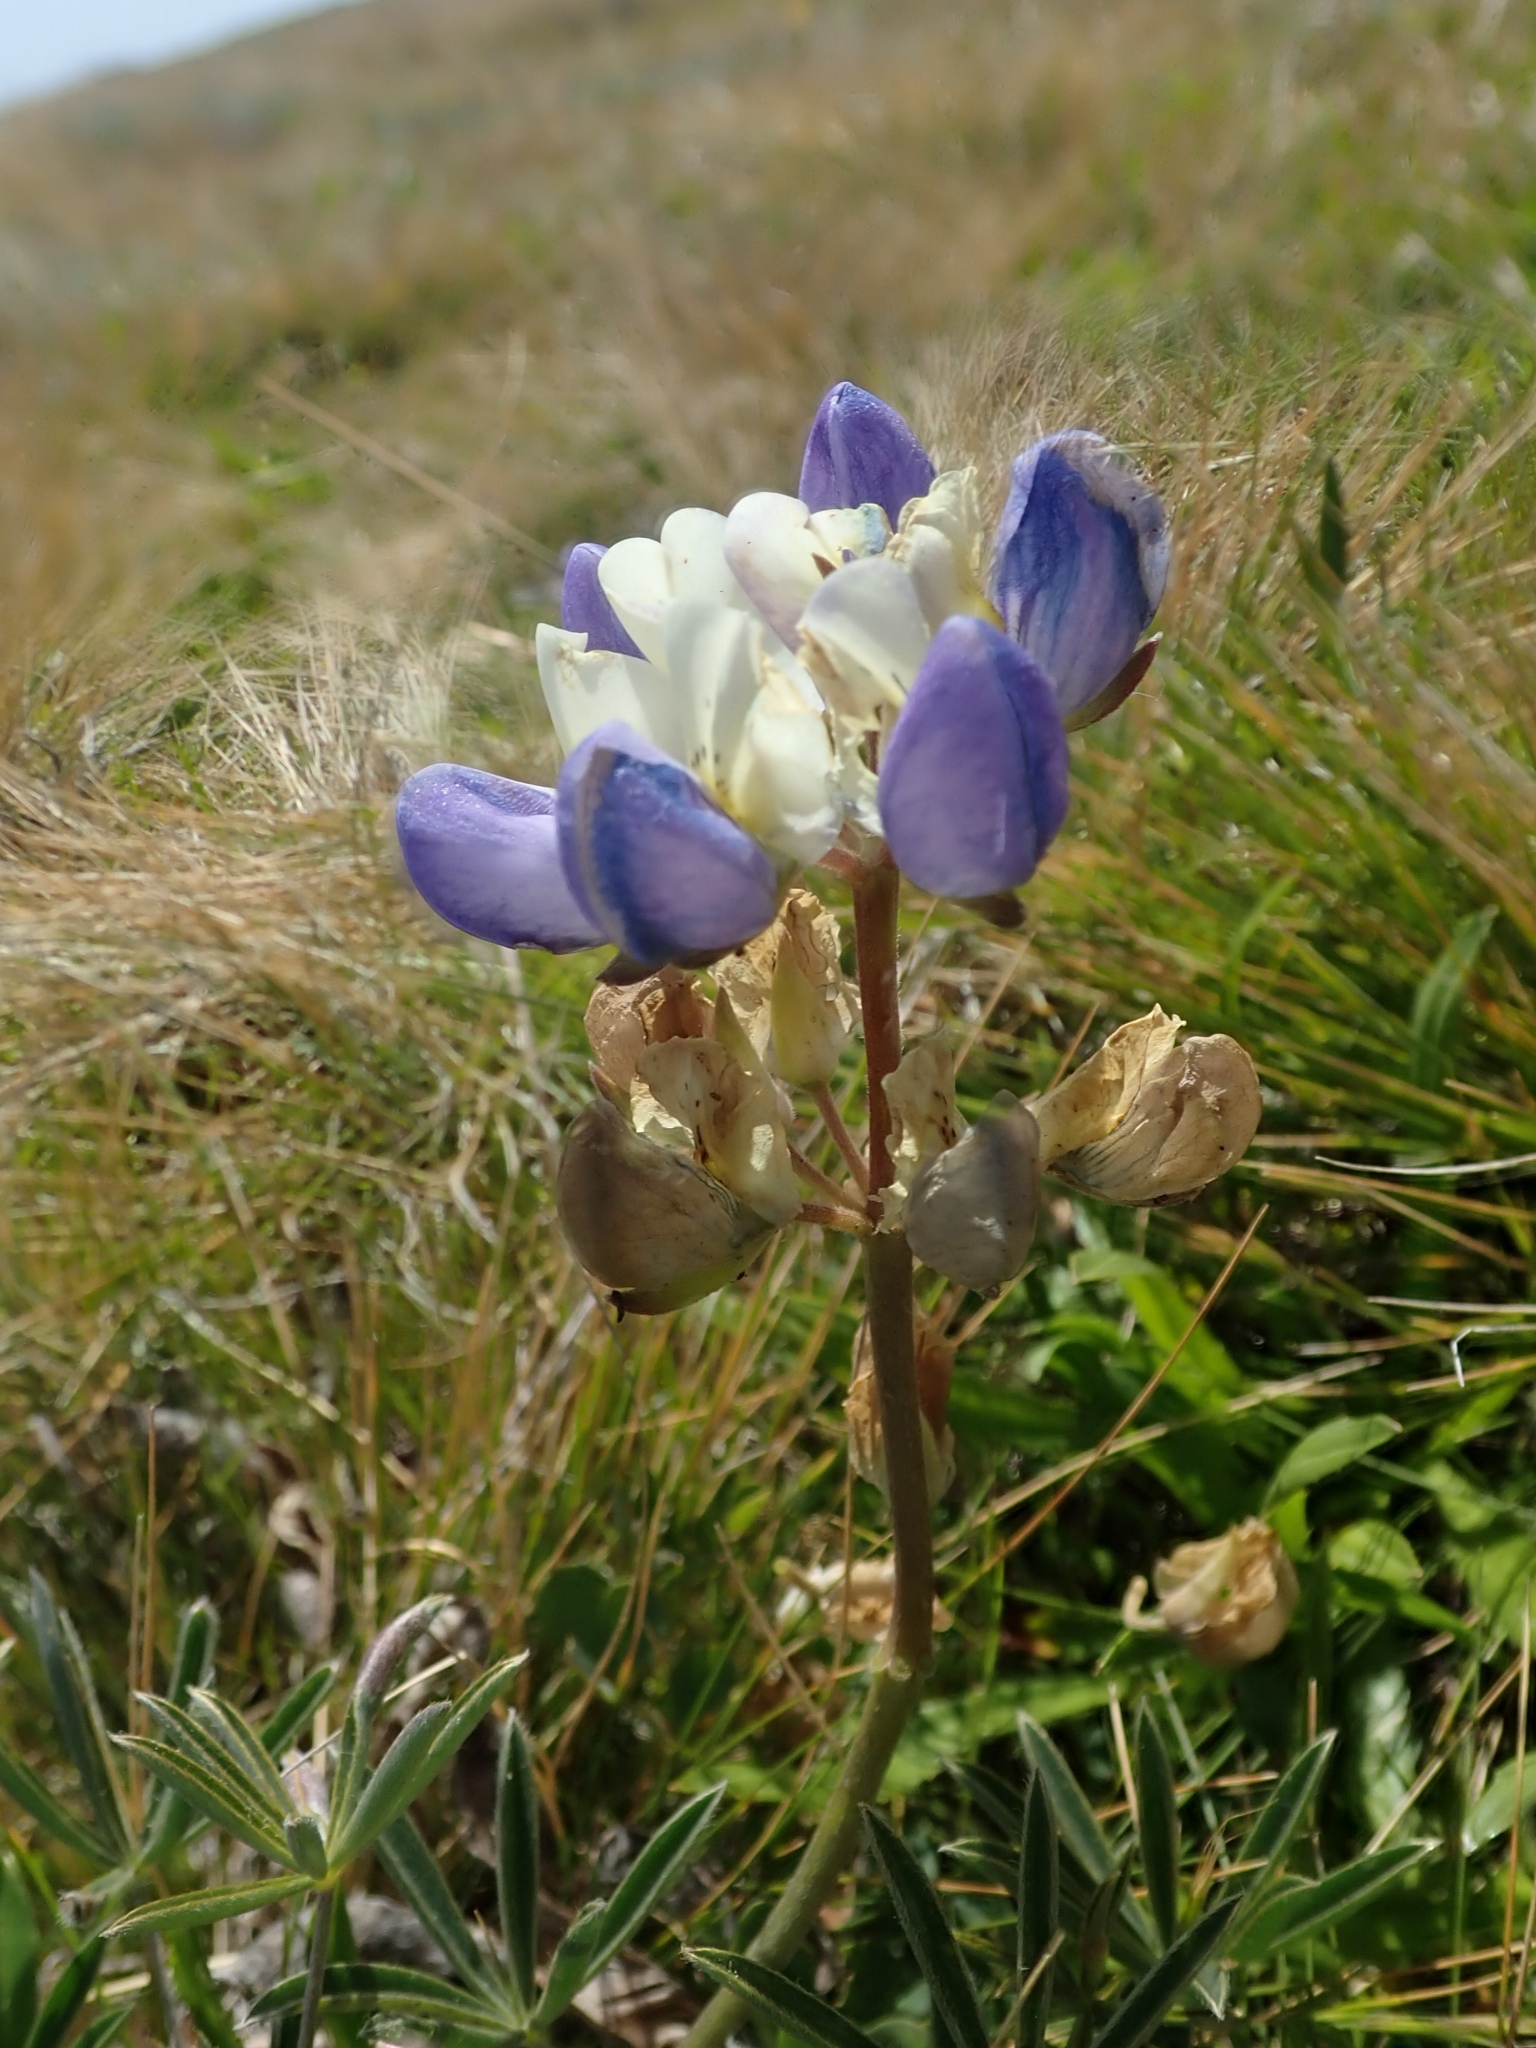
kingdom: Plantae
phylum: Tracheophyta
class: Magnoliopsida
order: Fabales
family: Fabaceae
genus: Lupinus
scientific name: Lupinus variicolor
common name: Lindley's varied lupine
